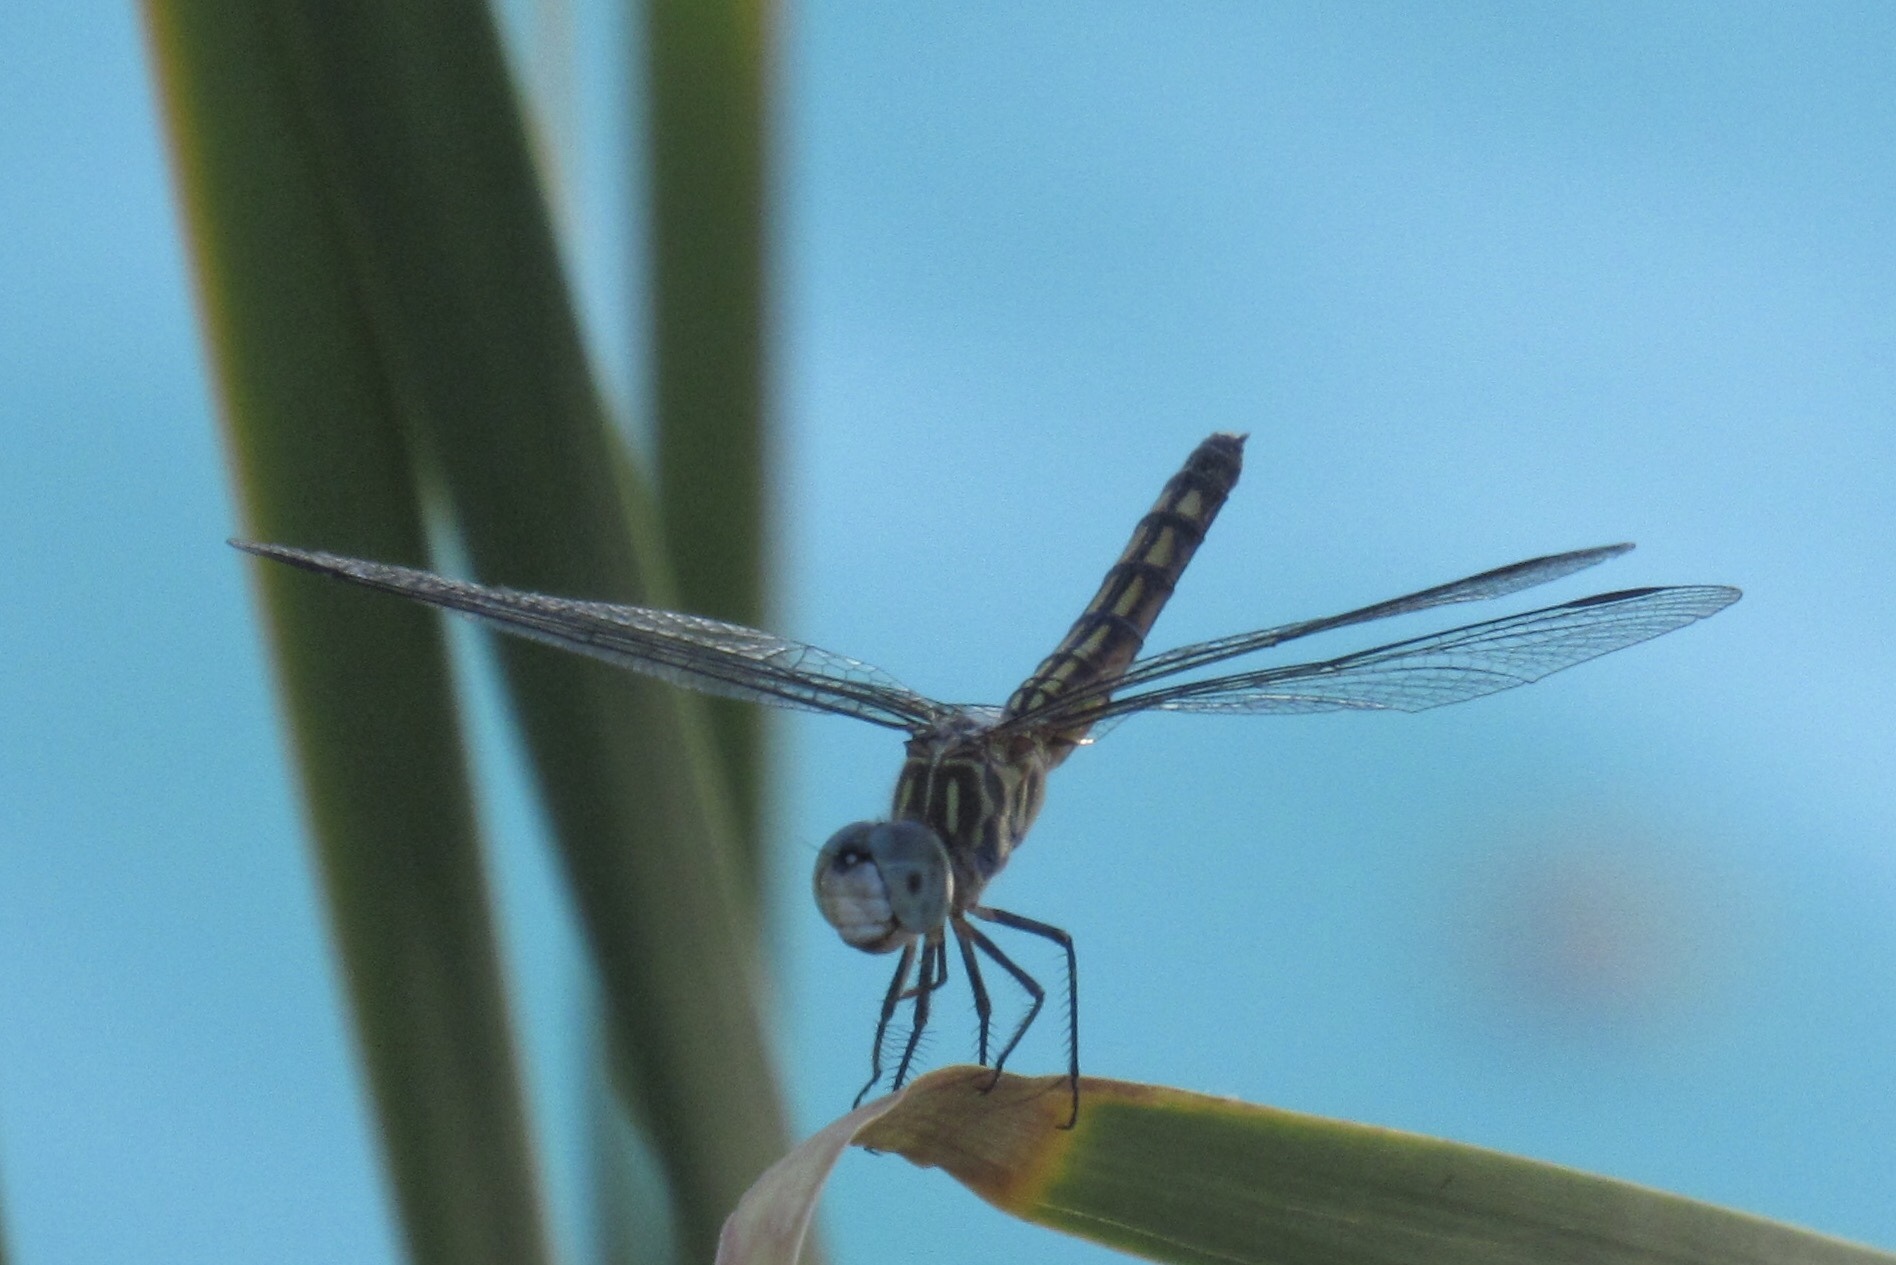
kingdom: Animalia
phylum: Arthropoda
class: Insecta
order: Odonata
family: Libellulidae
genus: Pachydiplax
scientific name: Pachydiplax longipennis
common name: Blue dasher
